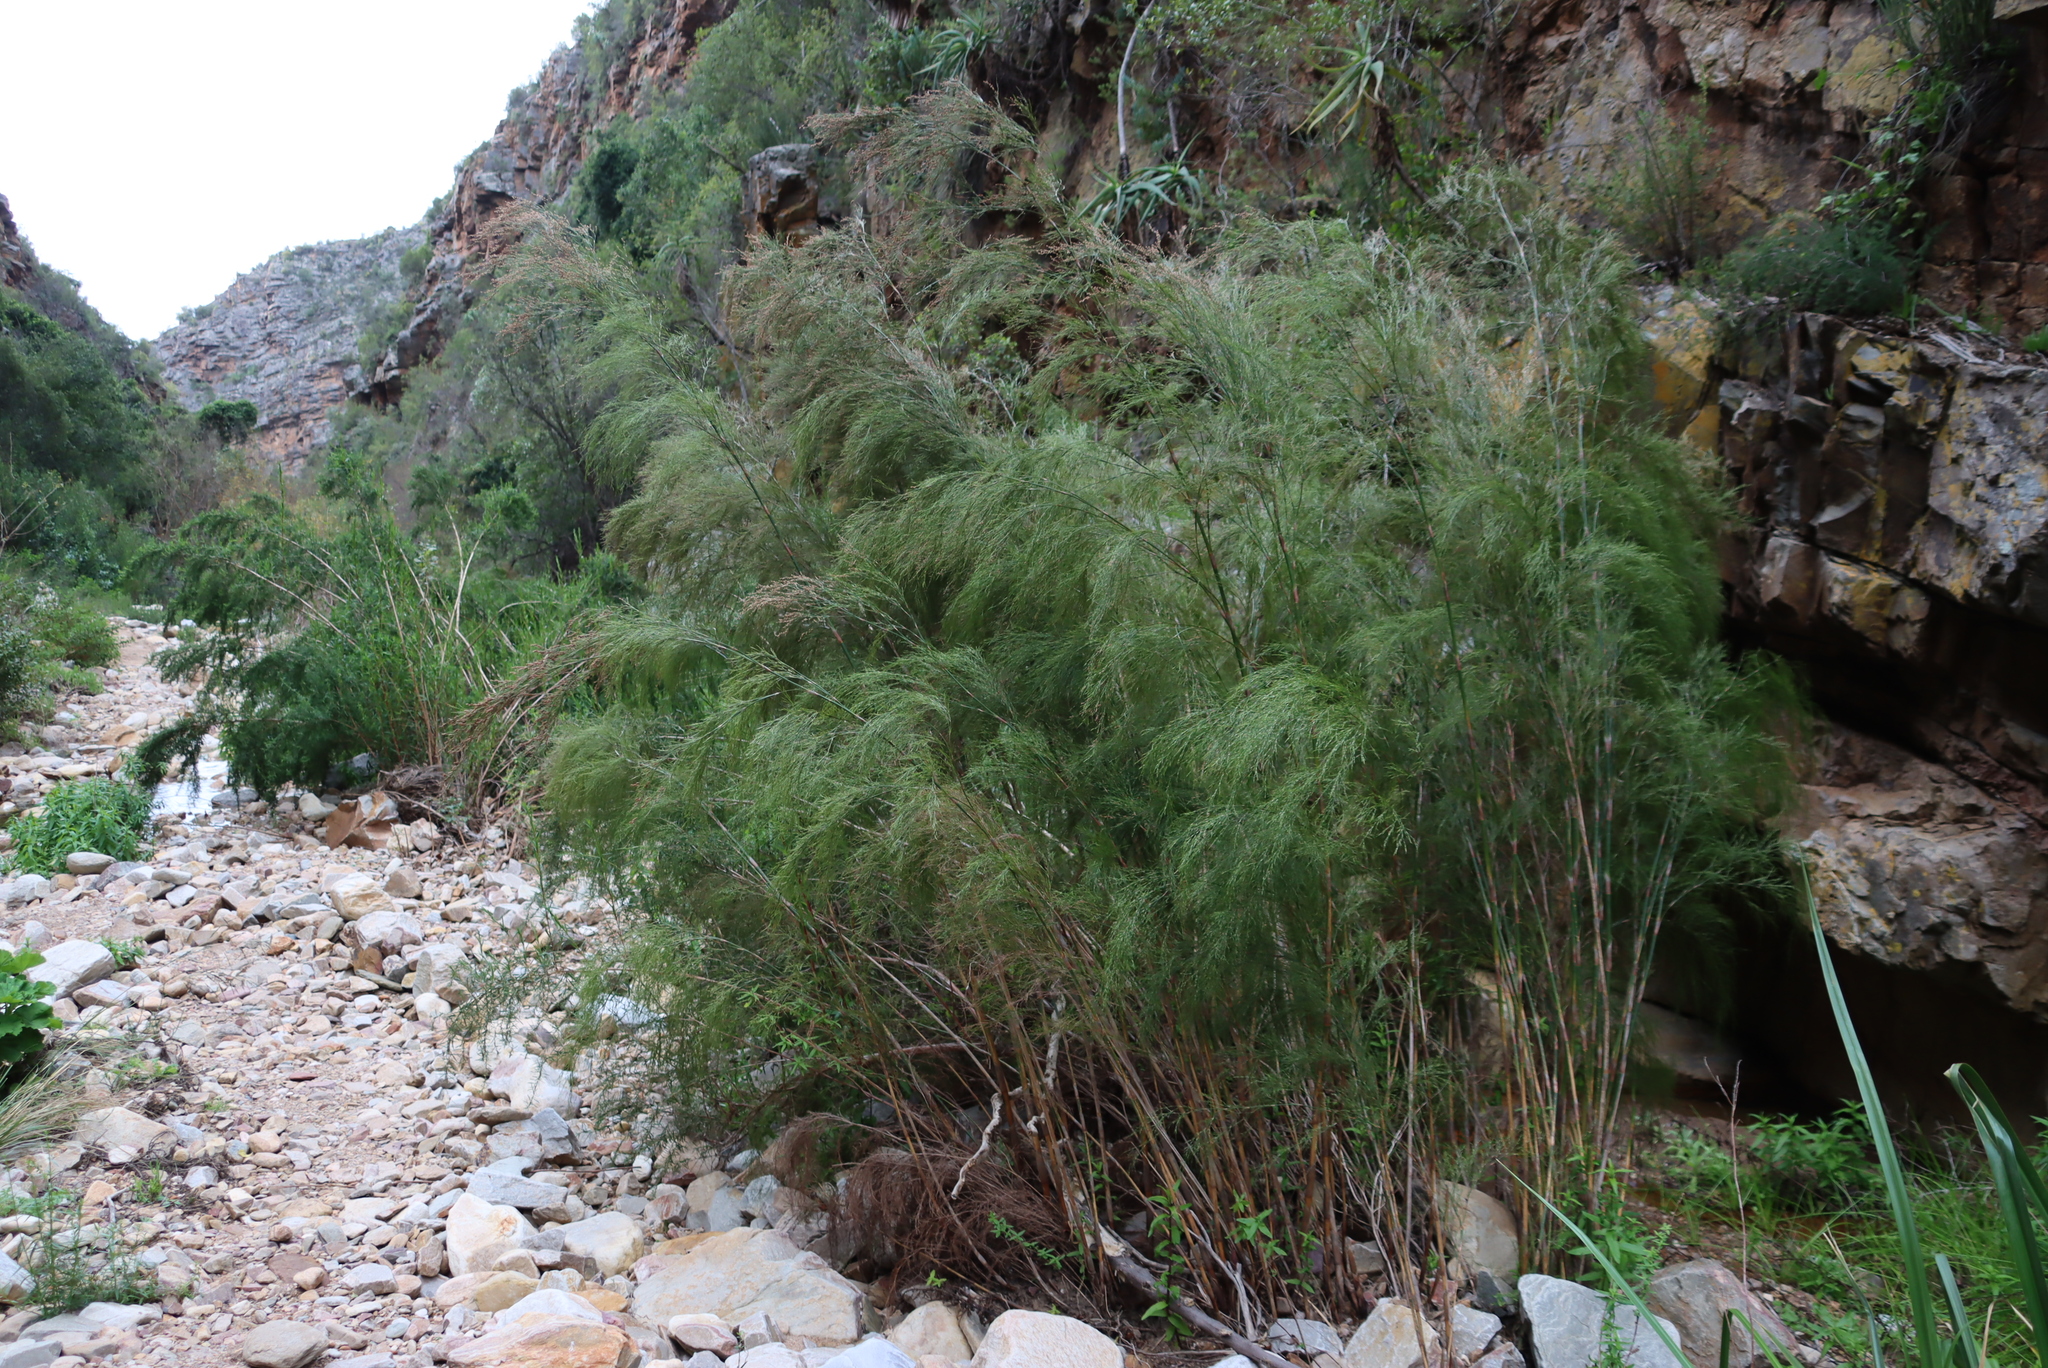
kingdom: Plantae
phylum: Tracheophyta
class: Liliopsida
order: Poales
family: Restionaceae
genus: Restio
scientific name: Restio paniculatus
